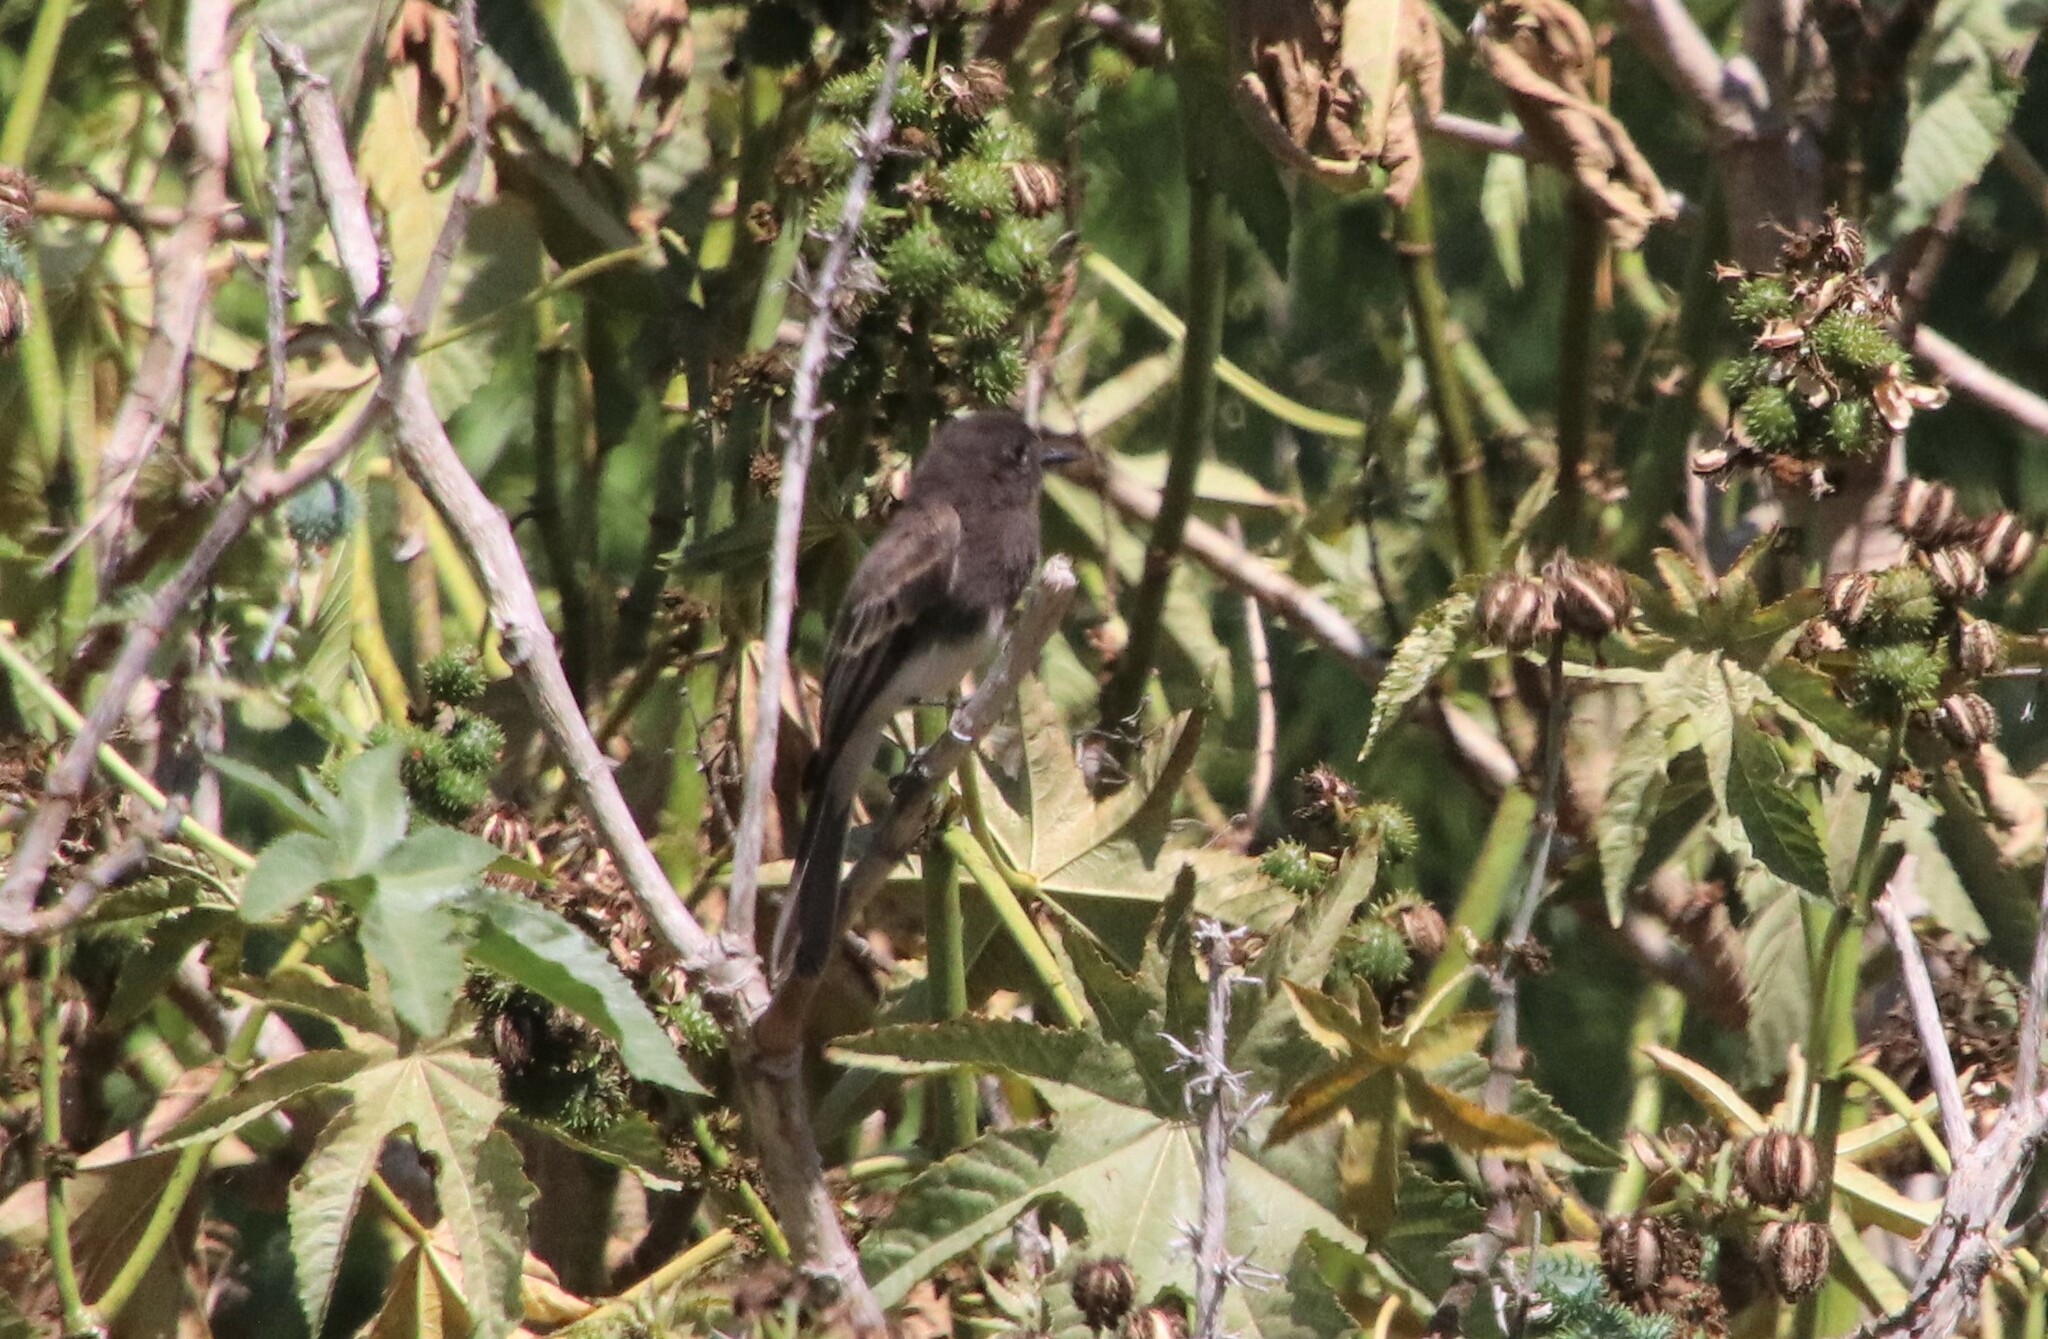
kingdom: Animalia
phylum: Chordata
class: Aves
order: Passeriformes
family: Tyrannidae
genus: Sayornis
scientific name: Sayornis nigricans
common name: Black phoebe
